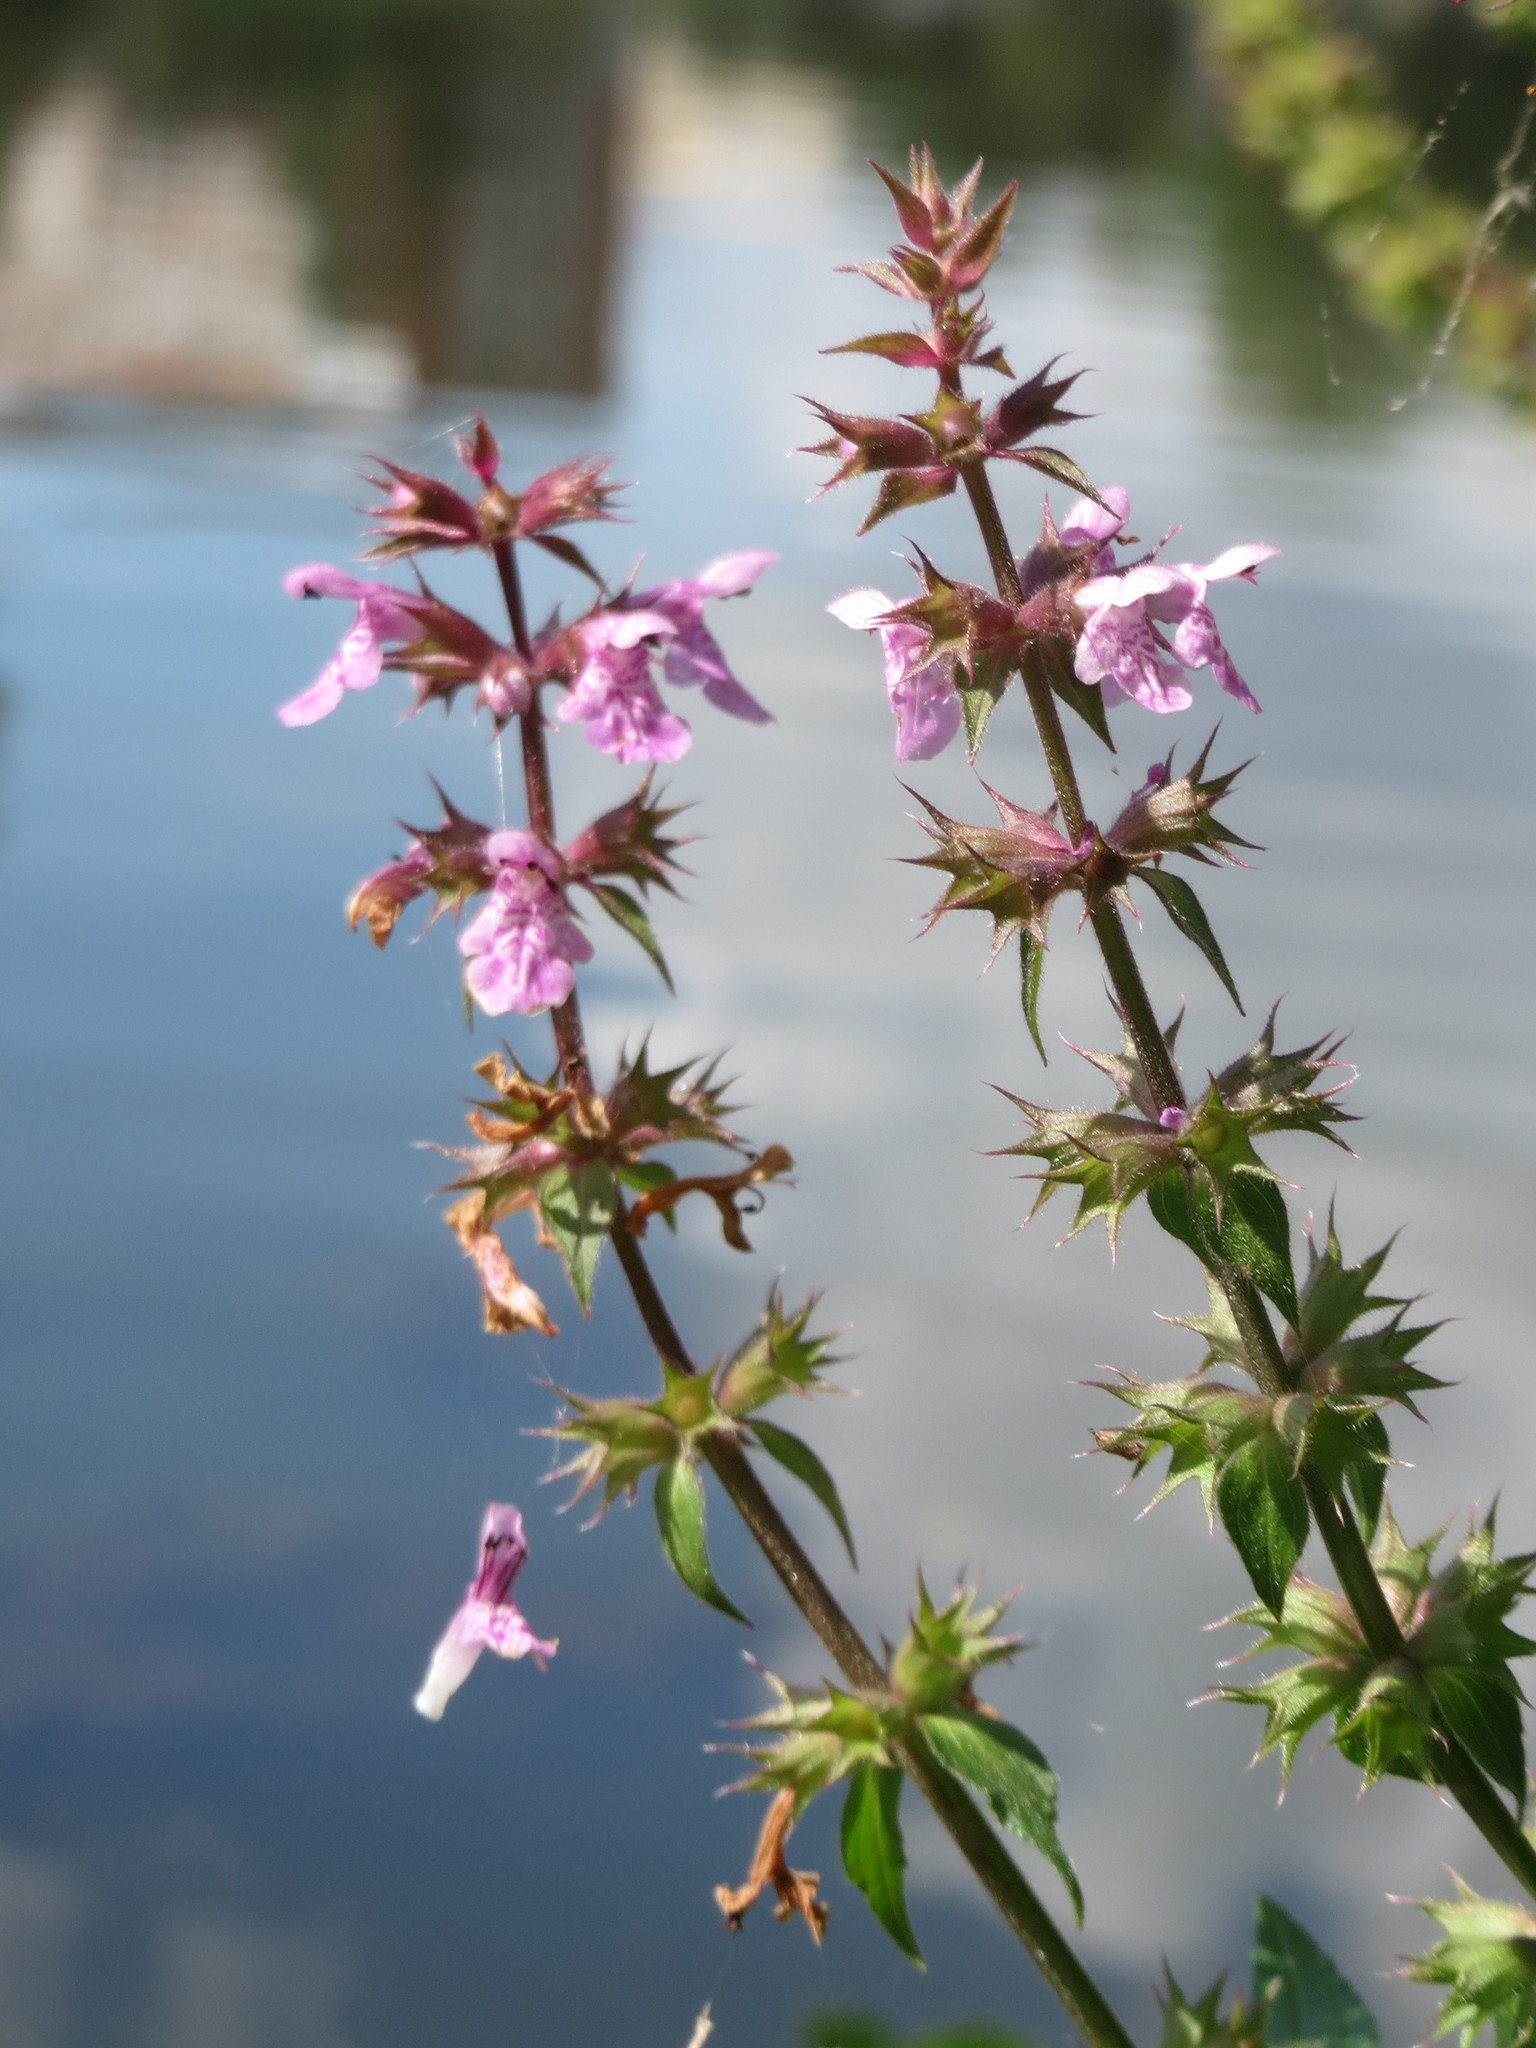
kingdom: Plantae
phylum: Tracheophyta
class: Magnoliopsida
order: Lamiales
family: Lamiaceae
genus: Stachys
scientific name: Stachys palustris
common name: Marsh woundwort
